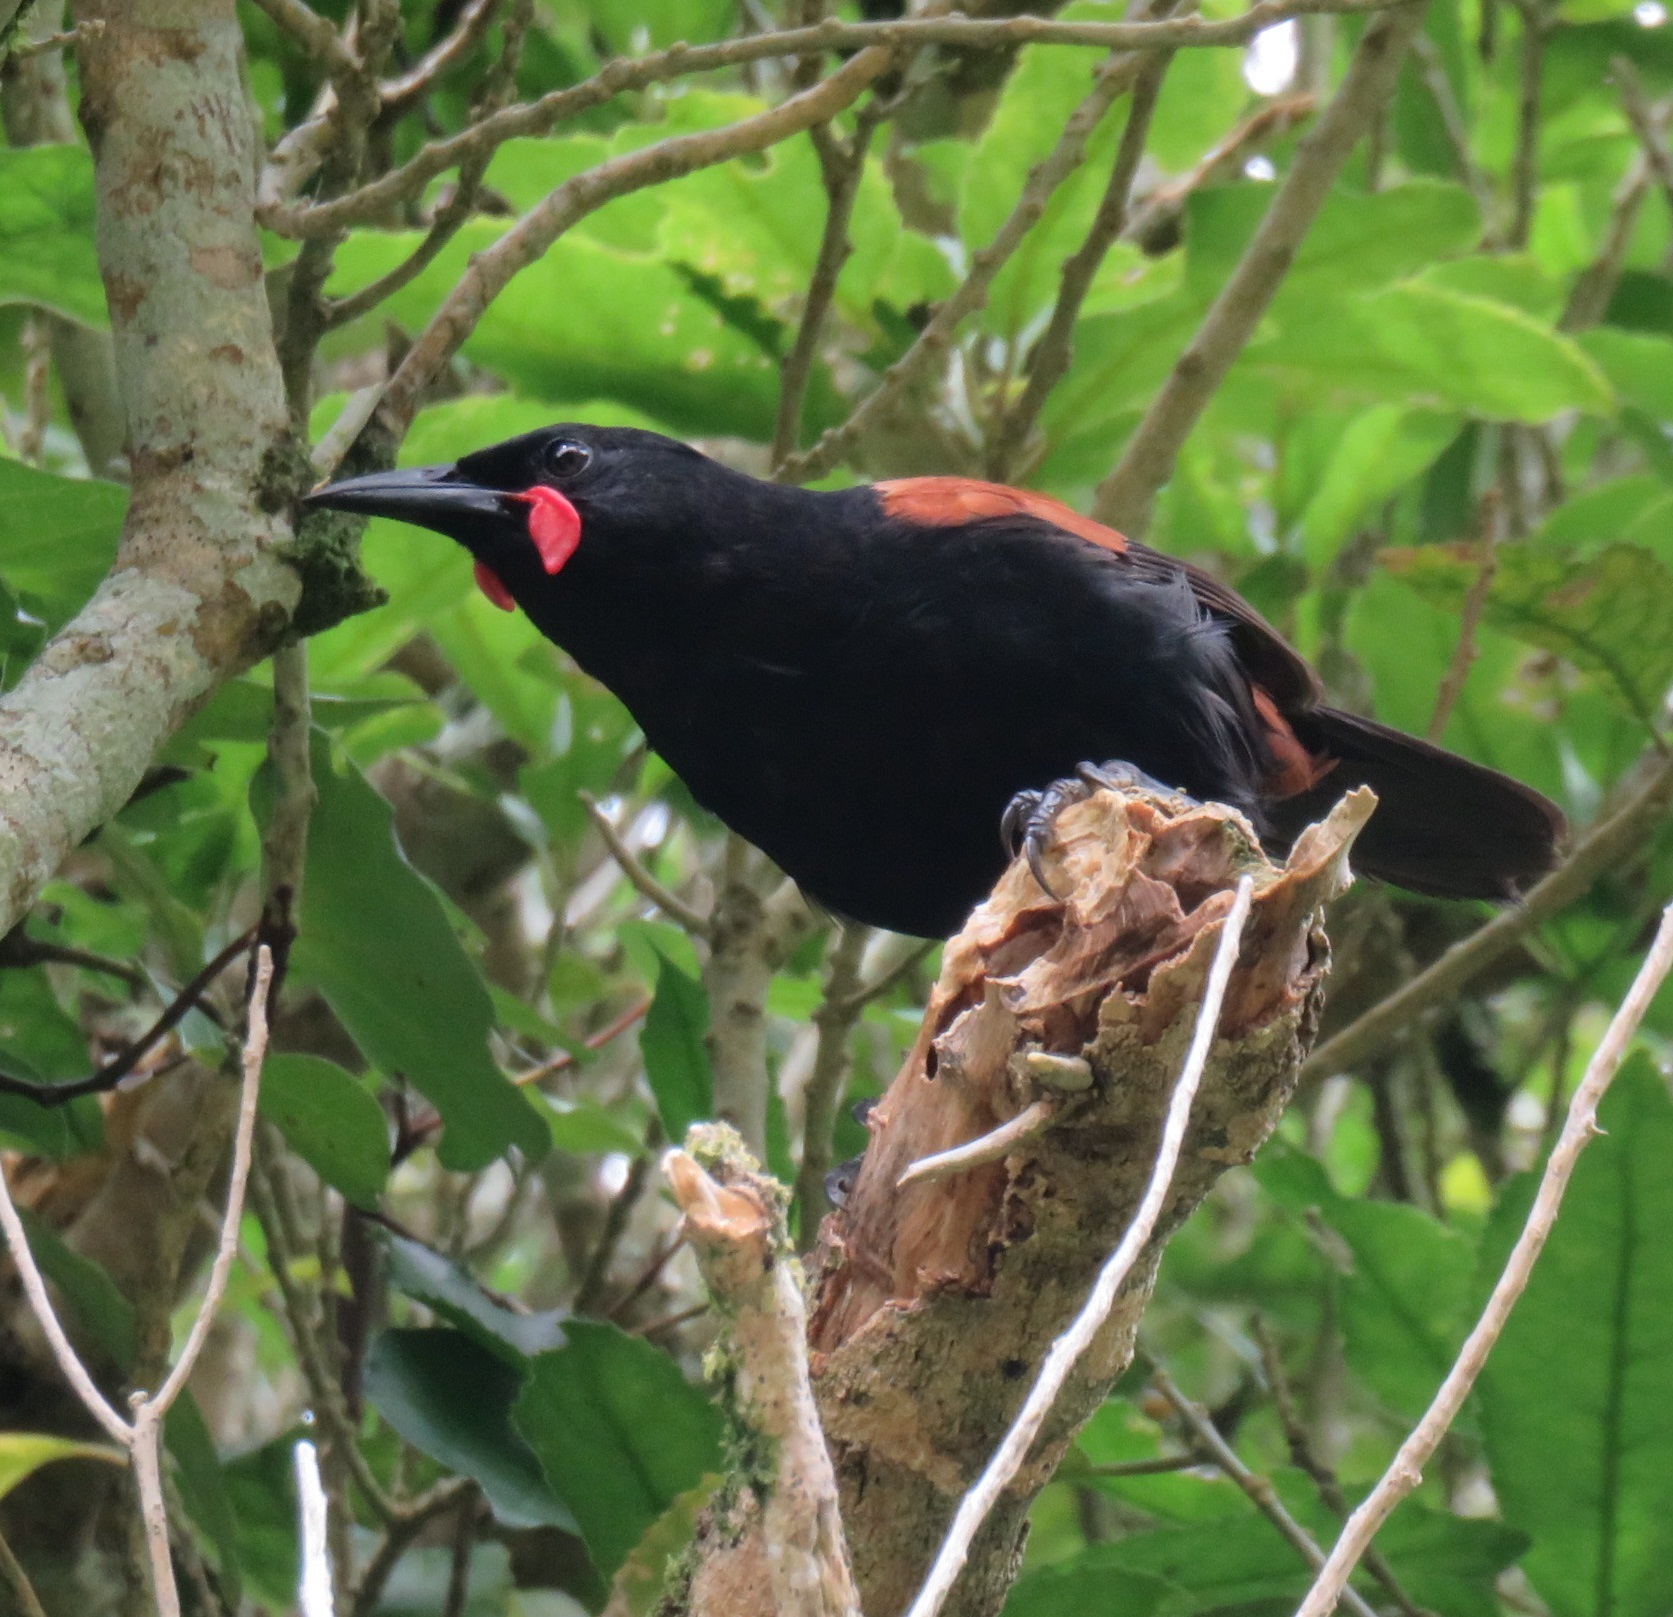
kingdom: Animalia
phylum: Chordata
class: Aves
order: Passeriformes
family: Callaeatidae
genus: Philesturnus
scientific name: Philesturnus carunculatus
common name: South island saddleback
